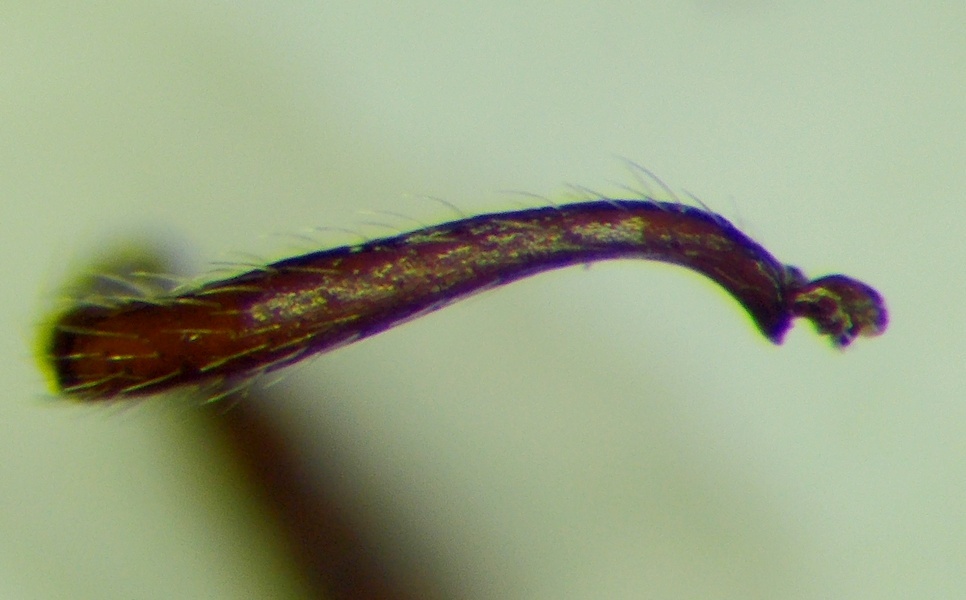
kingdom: Animalia
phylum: Arthropoda
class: Insecta
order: Hymenoptera
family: Formicidae
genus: Myrmica
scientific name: Myrmica bergi
